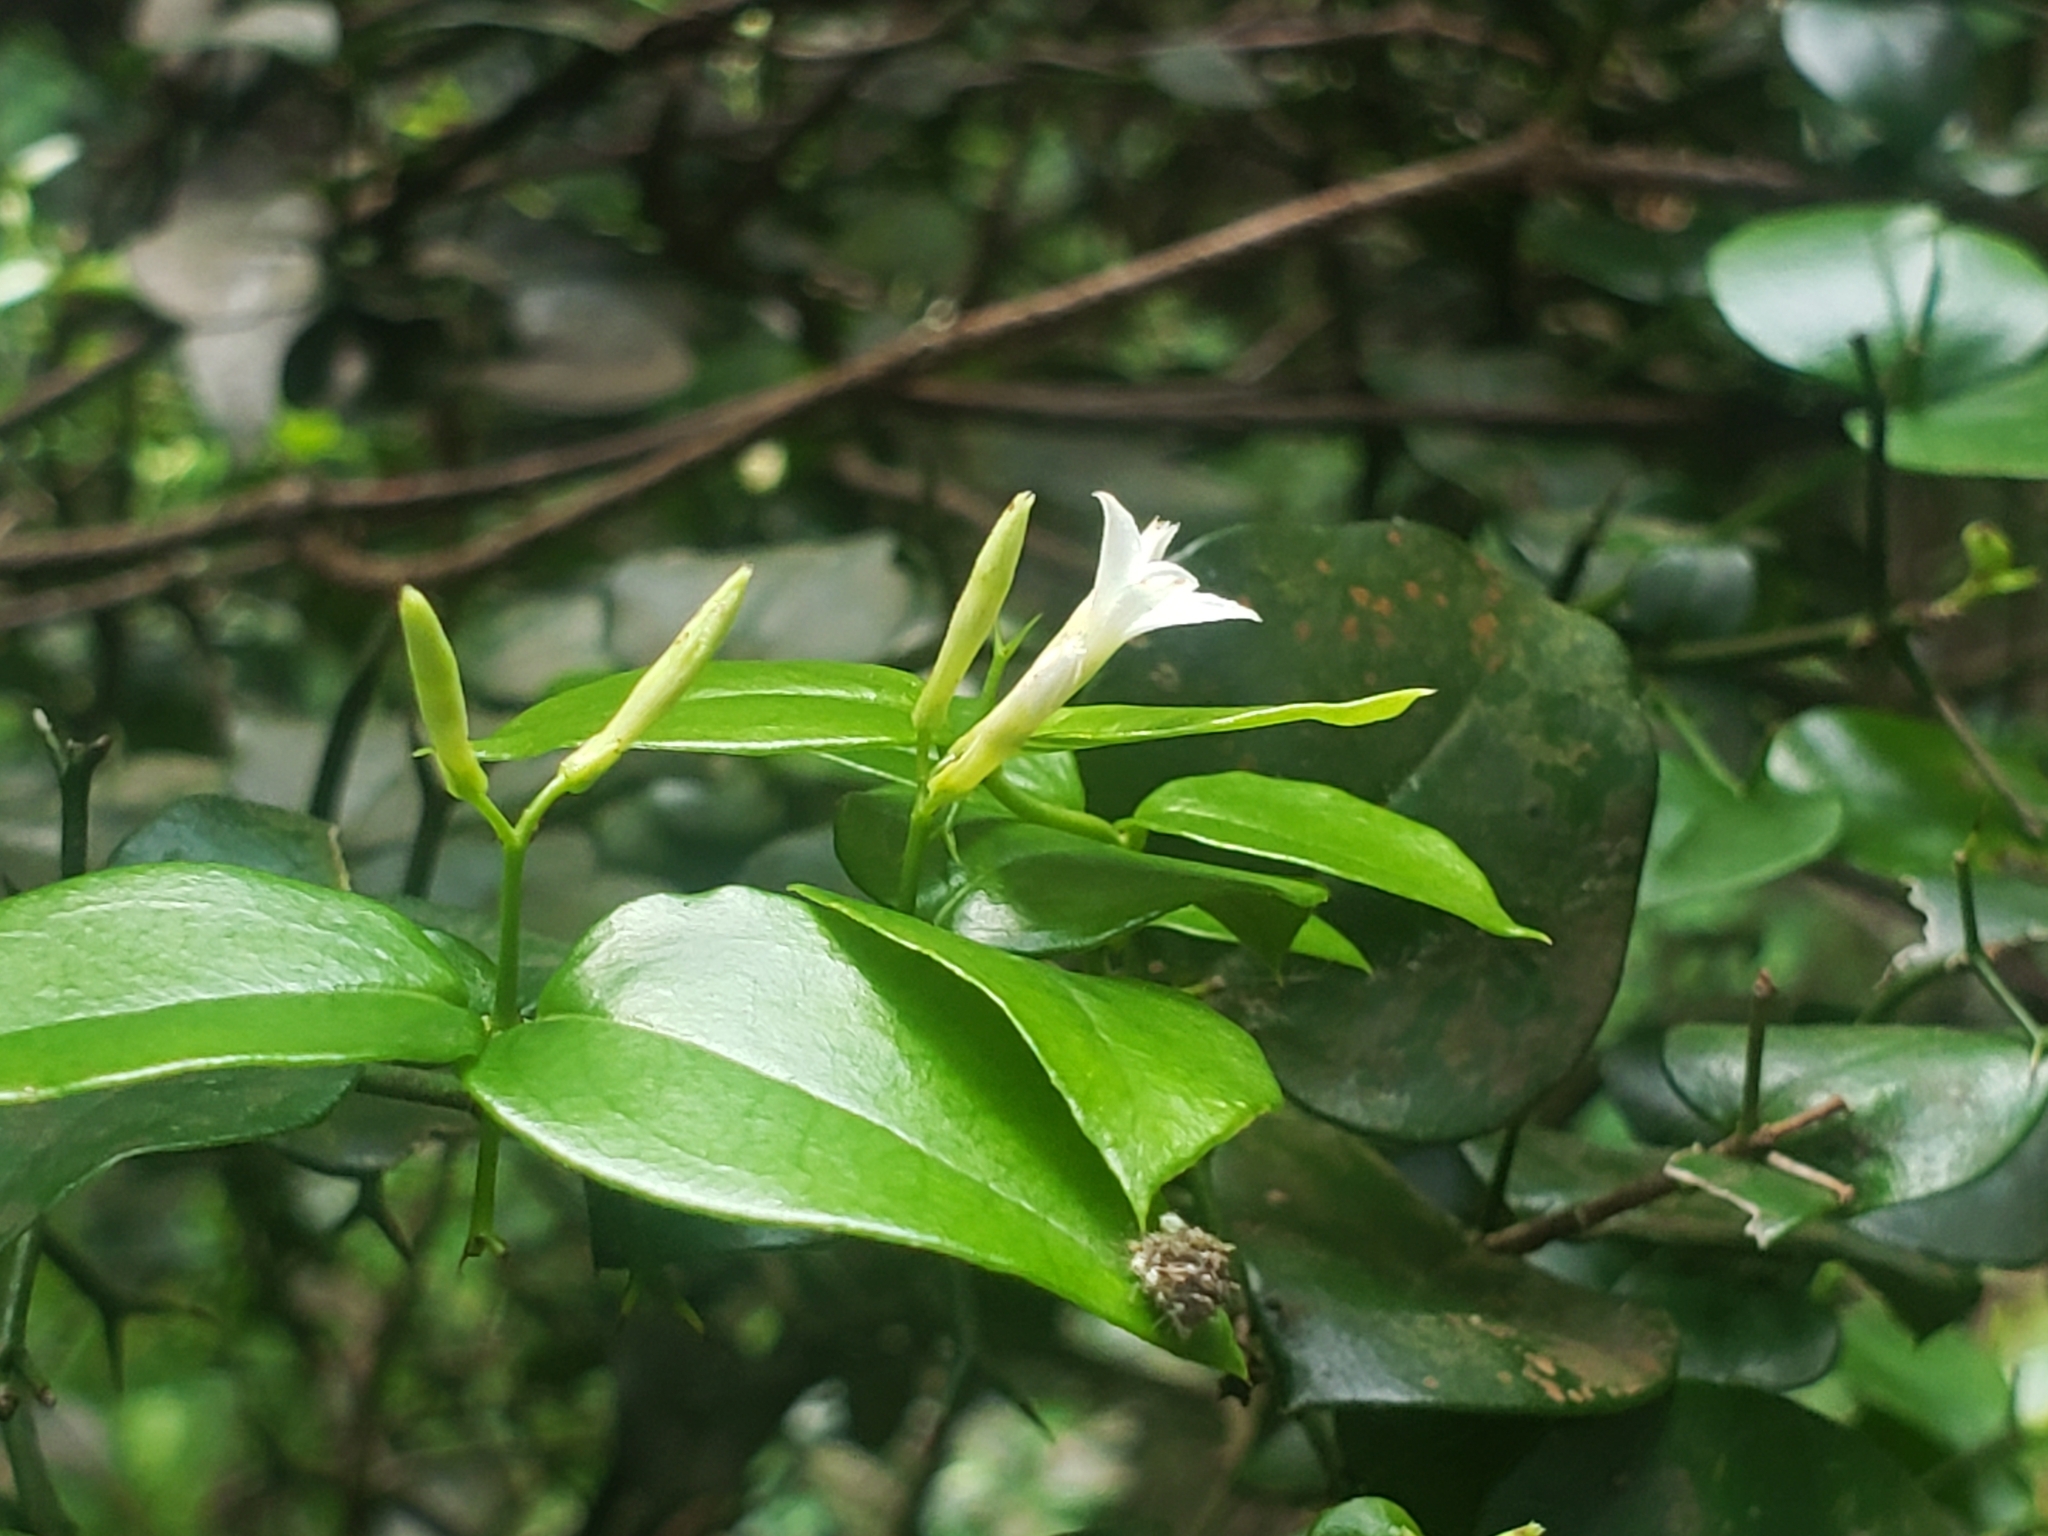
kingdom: Plantae
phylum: Tracheophyta
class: Magnoliopsida
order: Gentianales
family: Apocynaceae
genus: Carissa
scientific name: Carissa bispinosa
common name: Forest num-num
